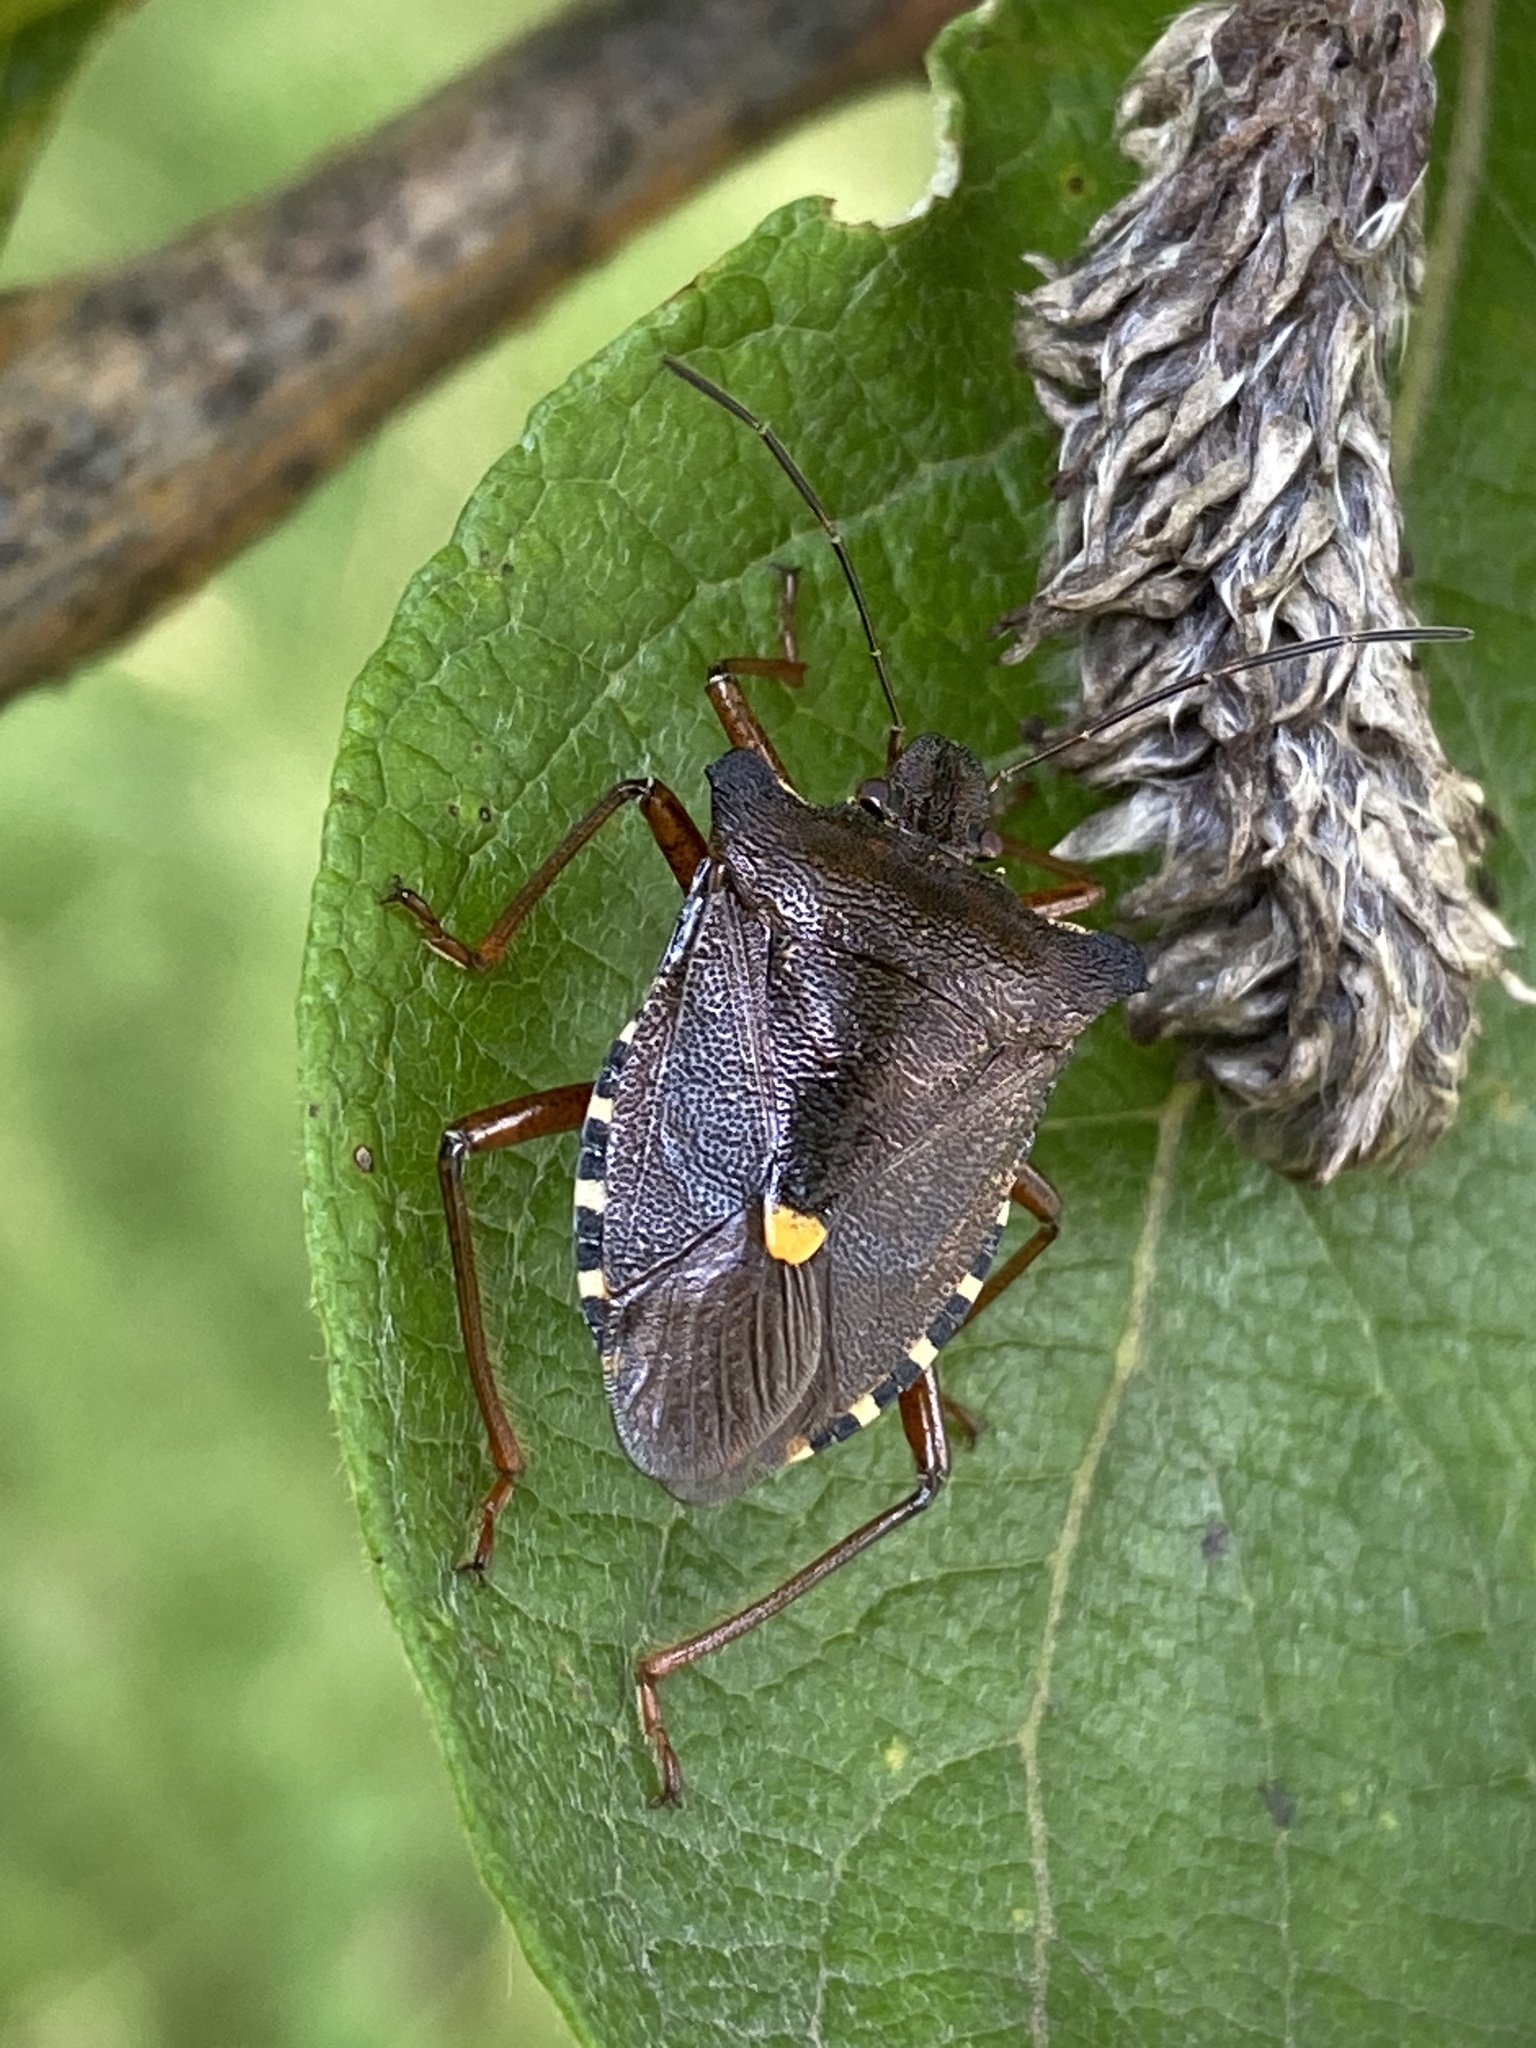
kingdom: Animalia
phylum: Arthropoda
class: Insecta
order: Hemiptera
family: Pentatomidae
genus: Pentatoma
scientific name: Pentatoma rufipes
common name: Forest bug
